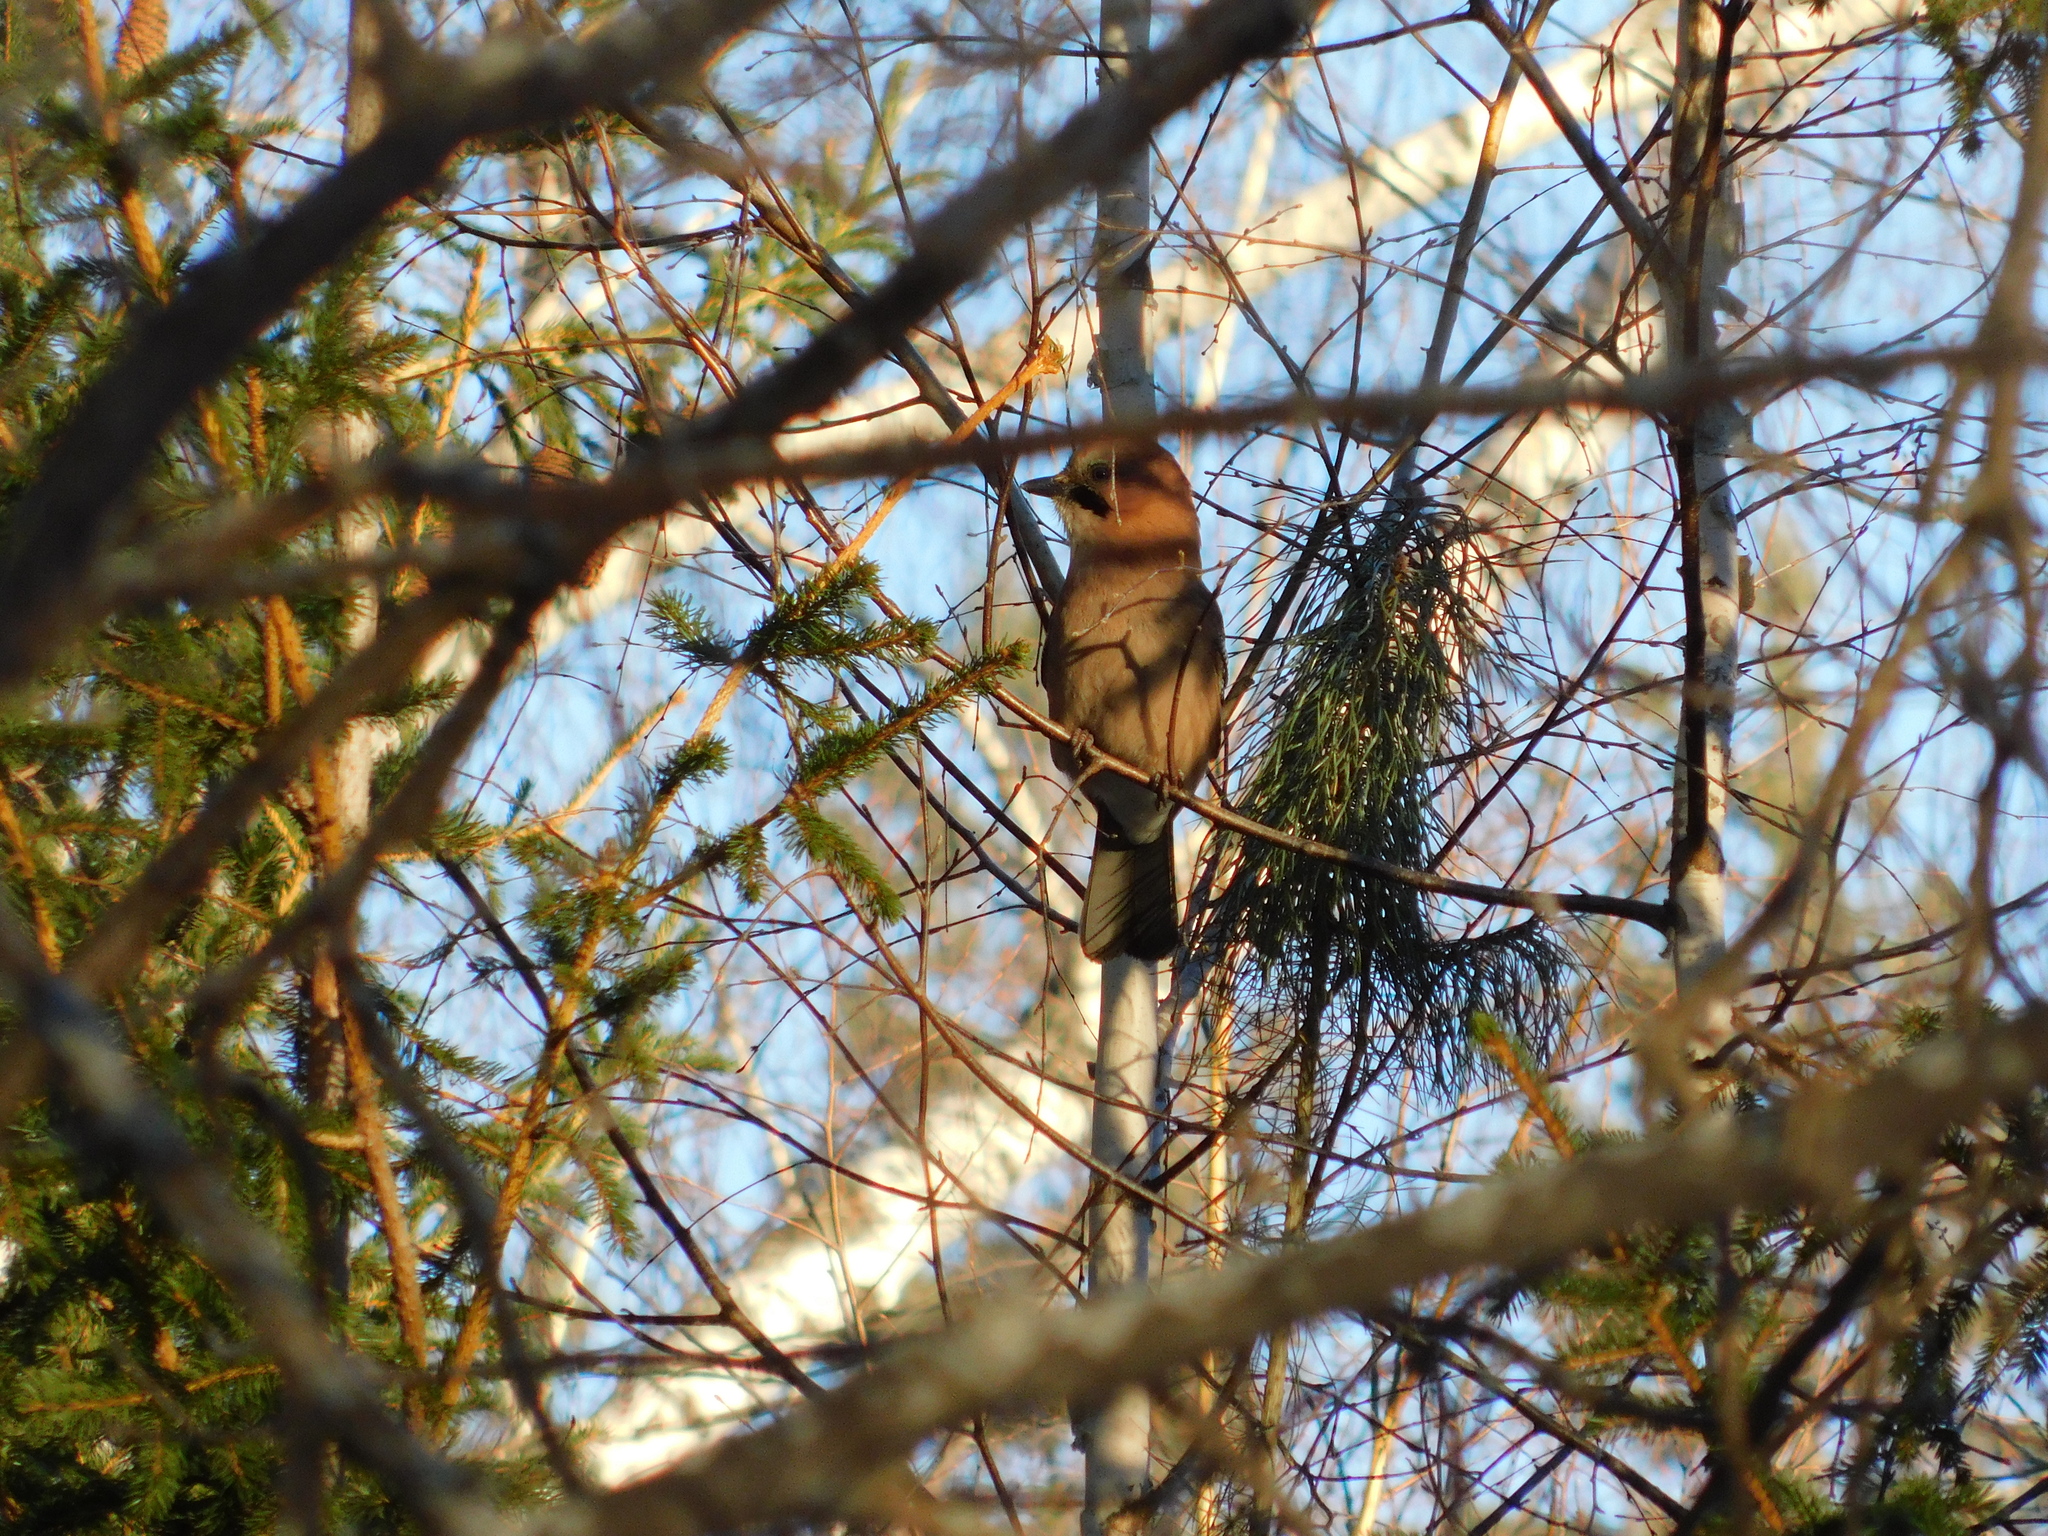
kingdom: Animalia
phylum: Chordata
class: Aves
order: Passeriformes
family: Corvidae
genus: Garrulus
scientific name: Garrulus glandarius
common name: Eurasian jay
